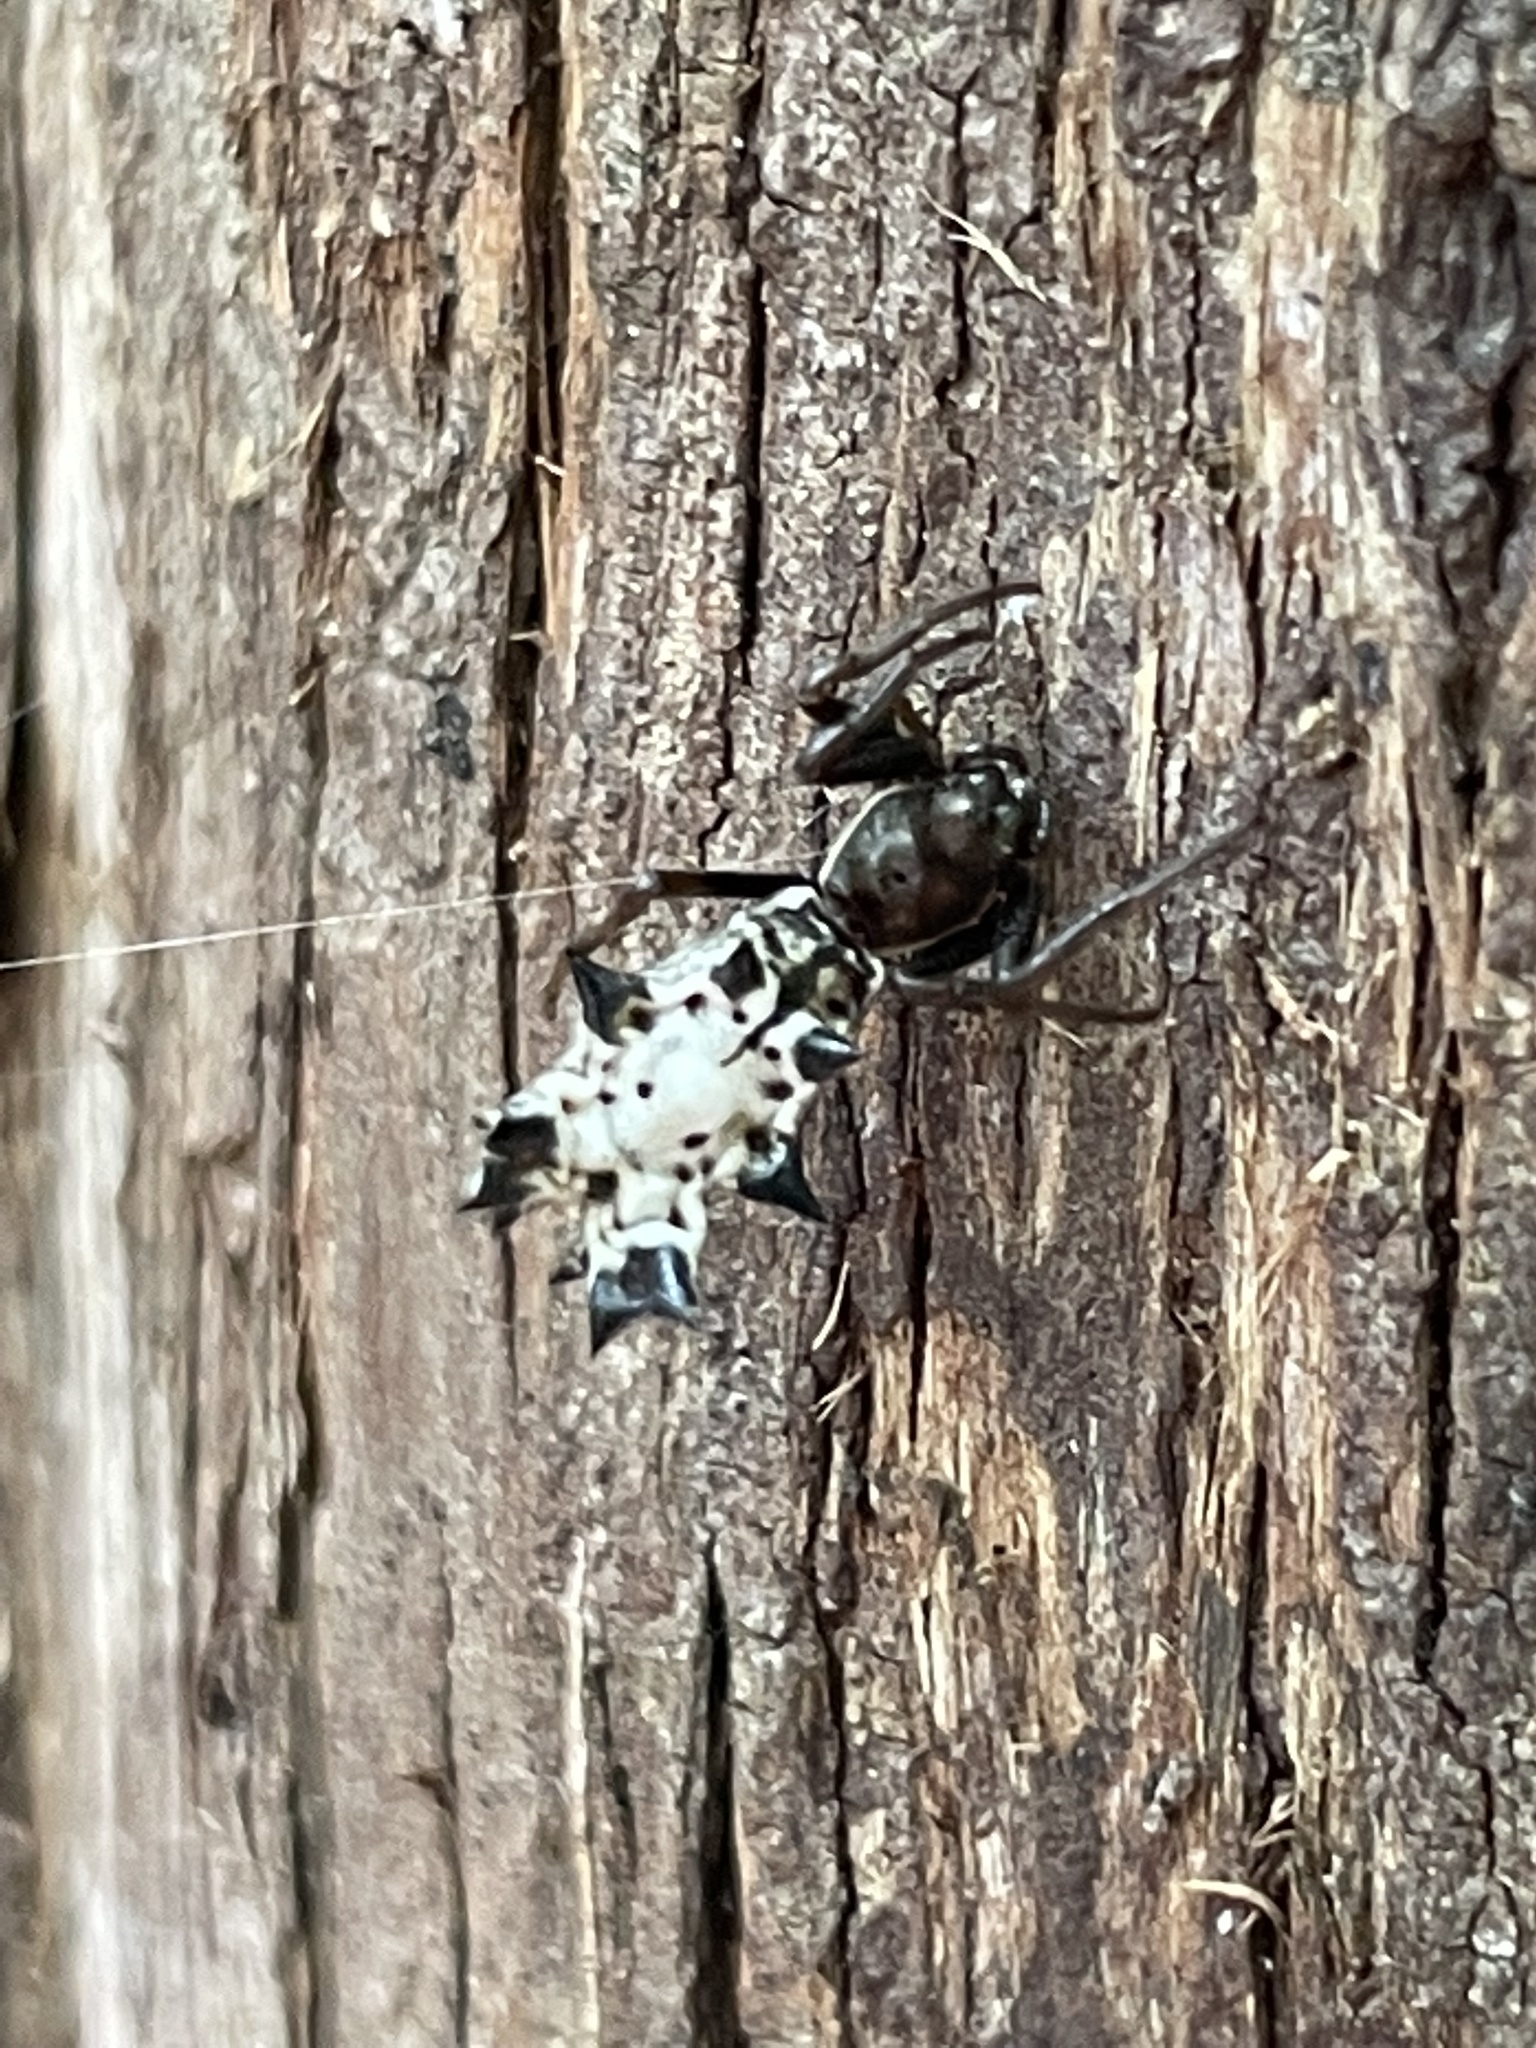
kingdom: Animalia
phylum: Arthropoda
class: Arachnida
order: Araneae
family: Araneidae
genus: Micrathena
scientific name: Micrathena gracilis
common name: Orb weavers
